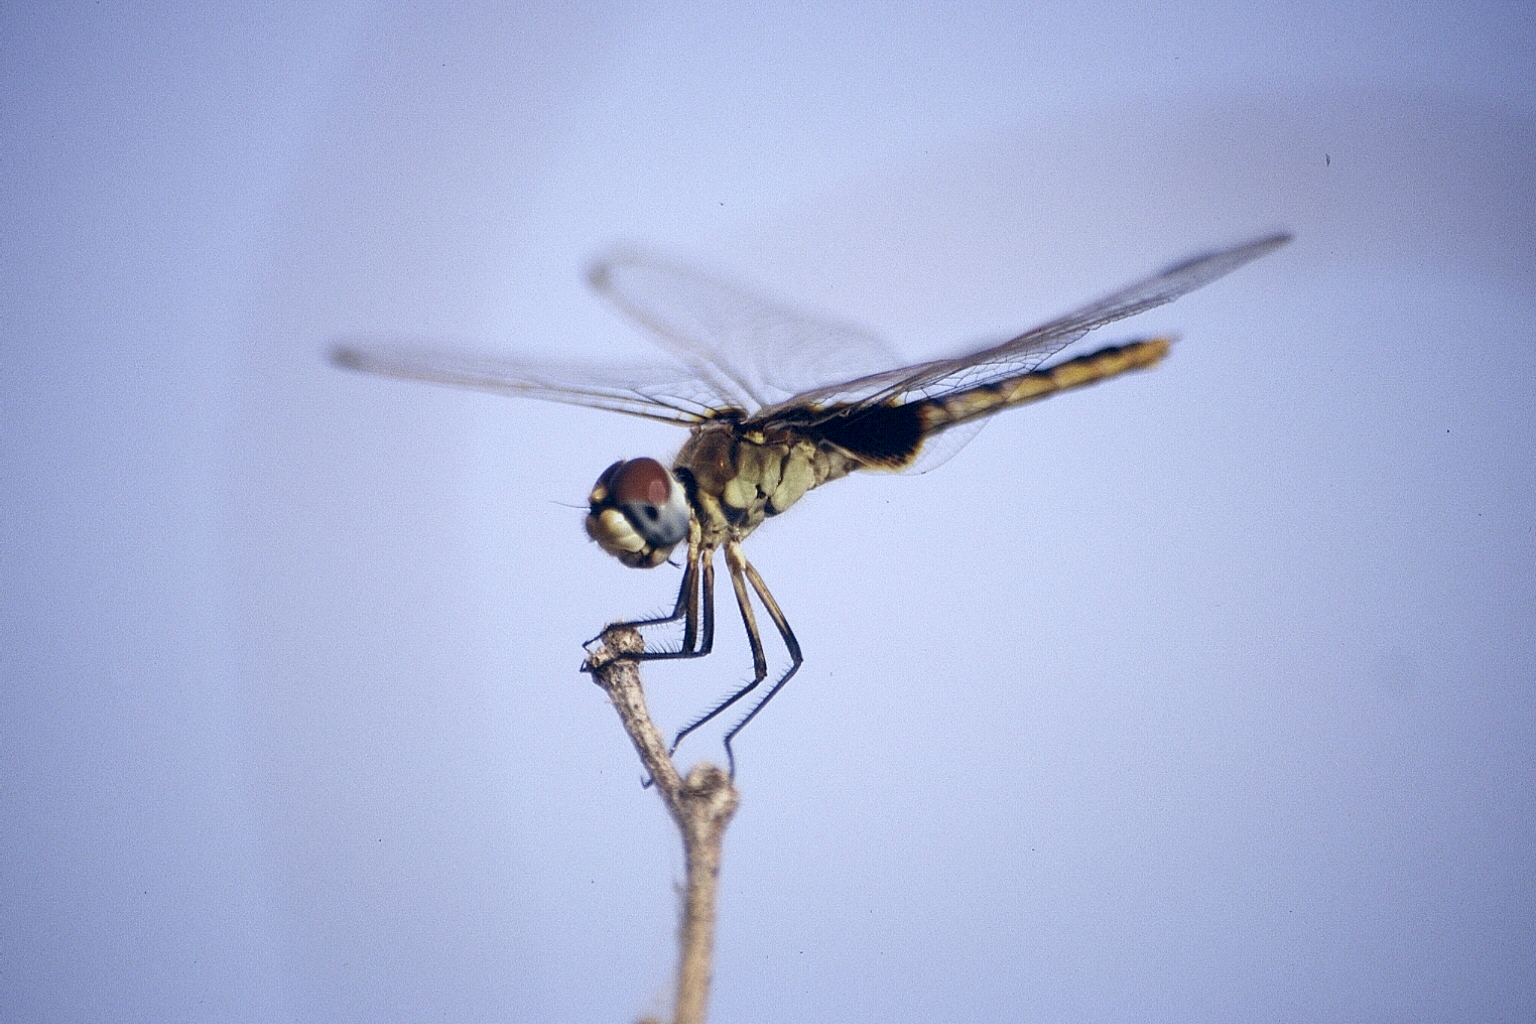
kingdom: Animalia
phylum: Arthropoda
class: Insecta
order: Odonata
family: Libellulidae
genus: Urothemis
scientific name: Urothemis edwardsii
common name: Blue basker
